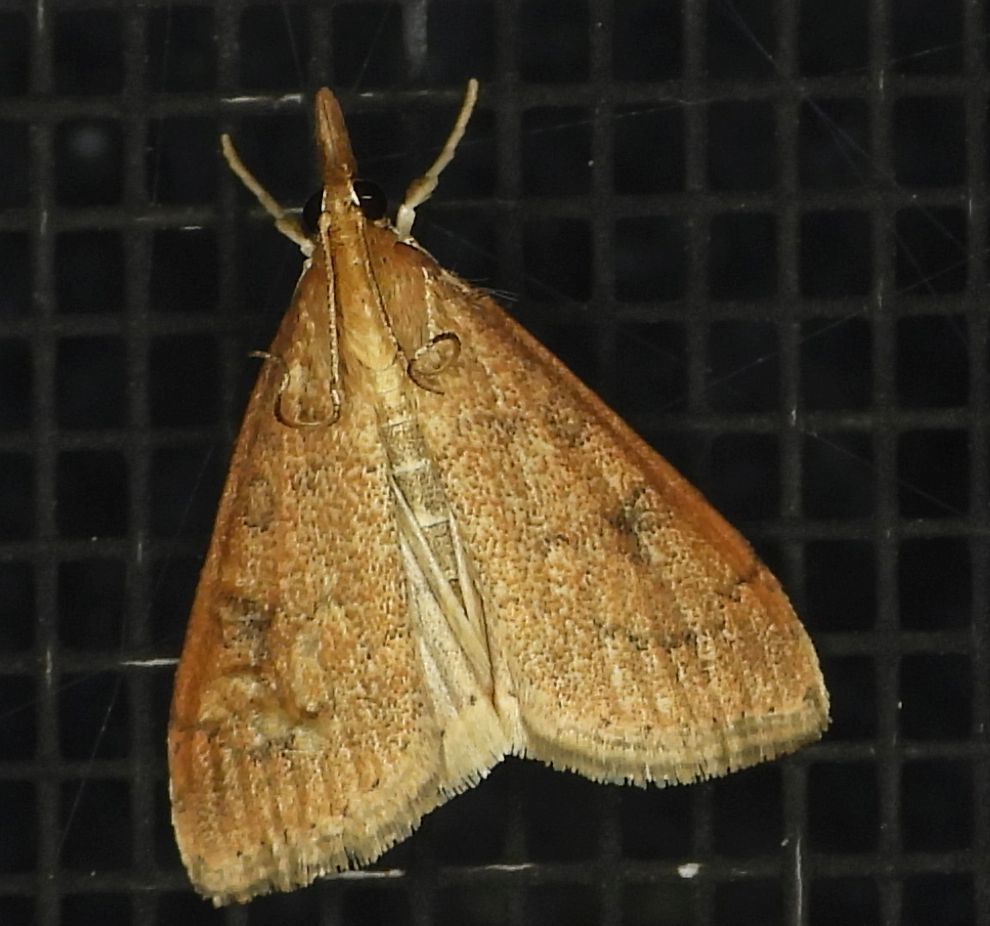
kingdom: Animalia
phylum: Arthropoda
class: Insecta
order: Lepidoptera
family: Crambidae
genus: Udea
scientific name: Udea rubigalis
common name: Celery leaftier moth
